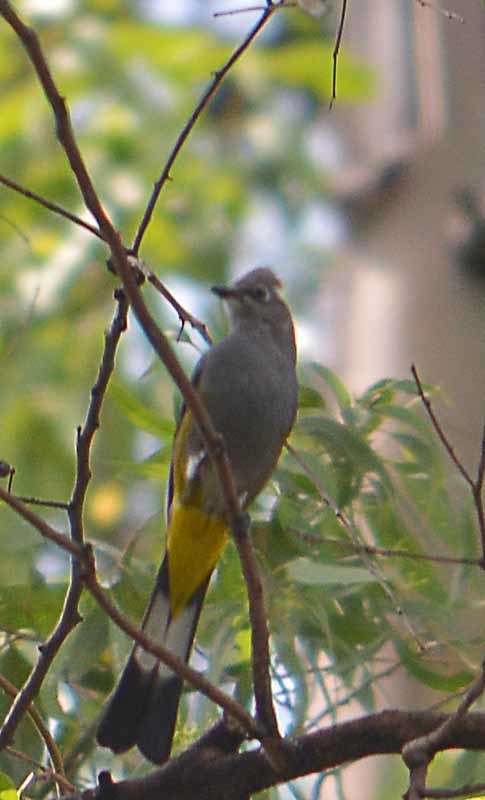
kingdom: Animalia
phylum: Chordata
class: Aves
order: Passeriformes
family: Ptilogonatidae
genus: Ptilogonys
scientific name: Ptilogonys cinereus
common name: Gray silky-flycatcher
